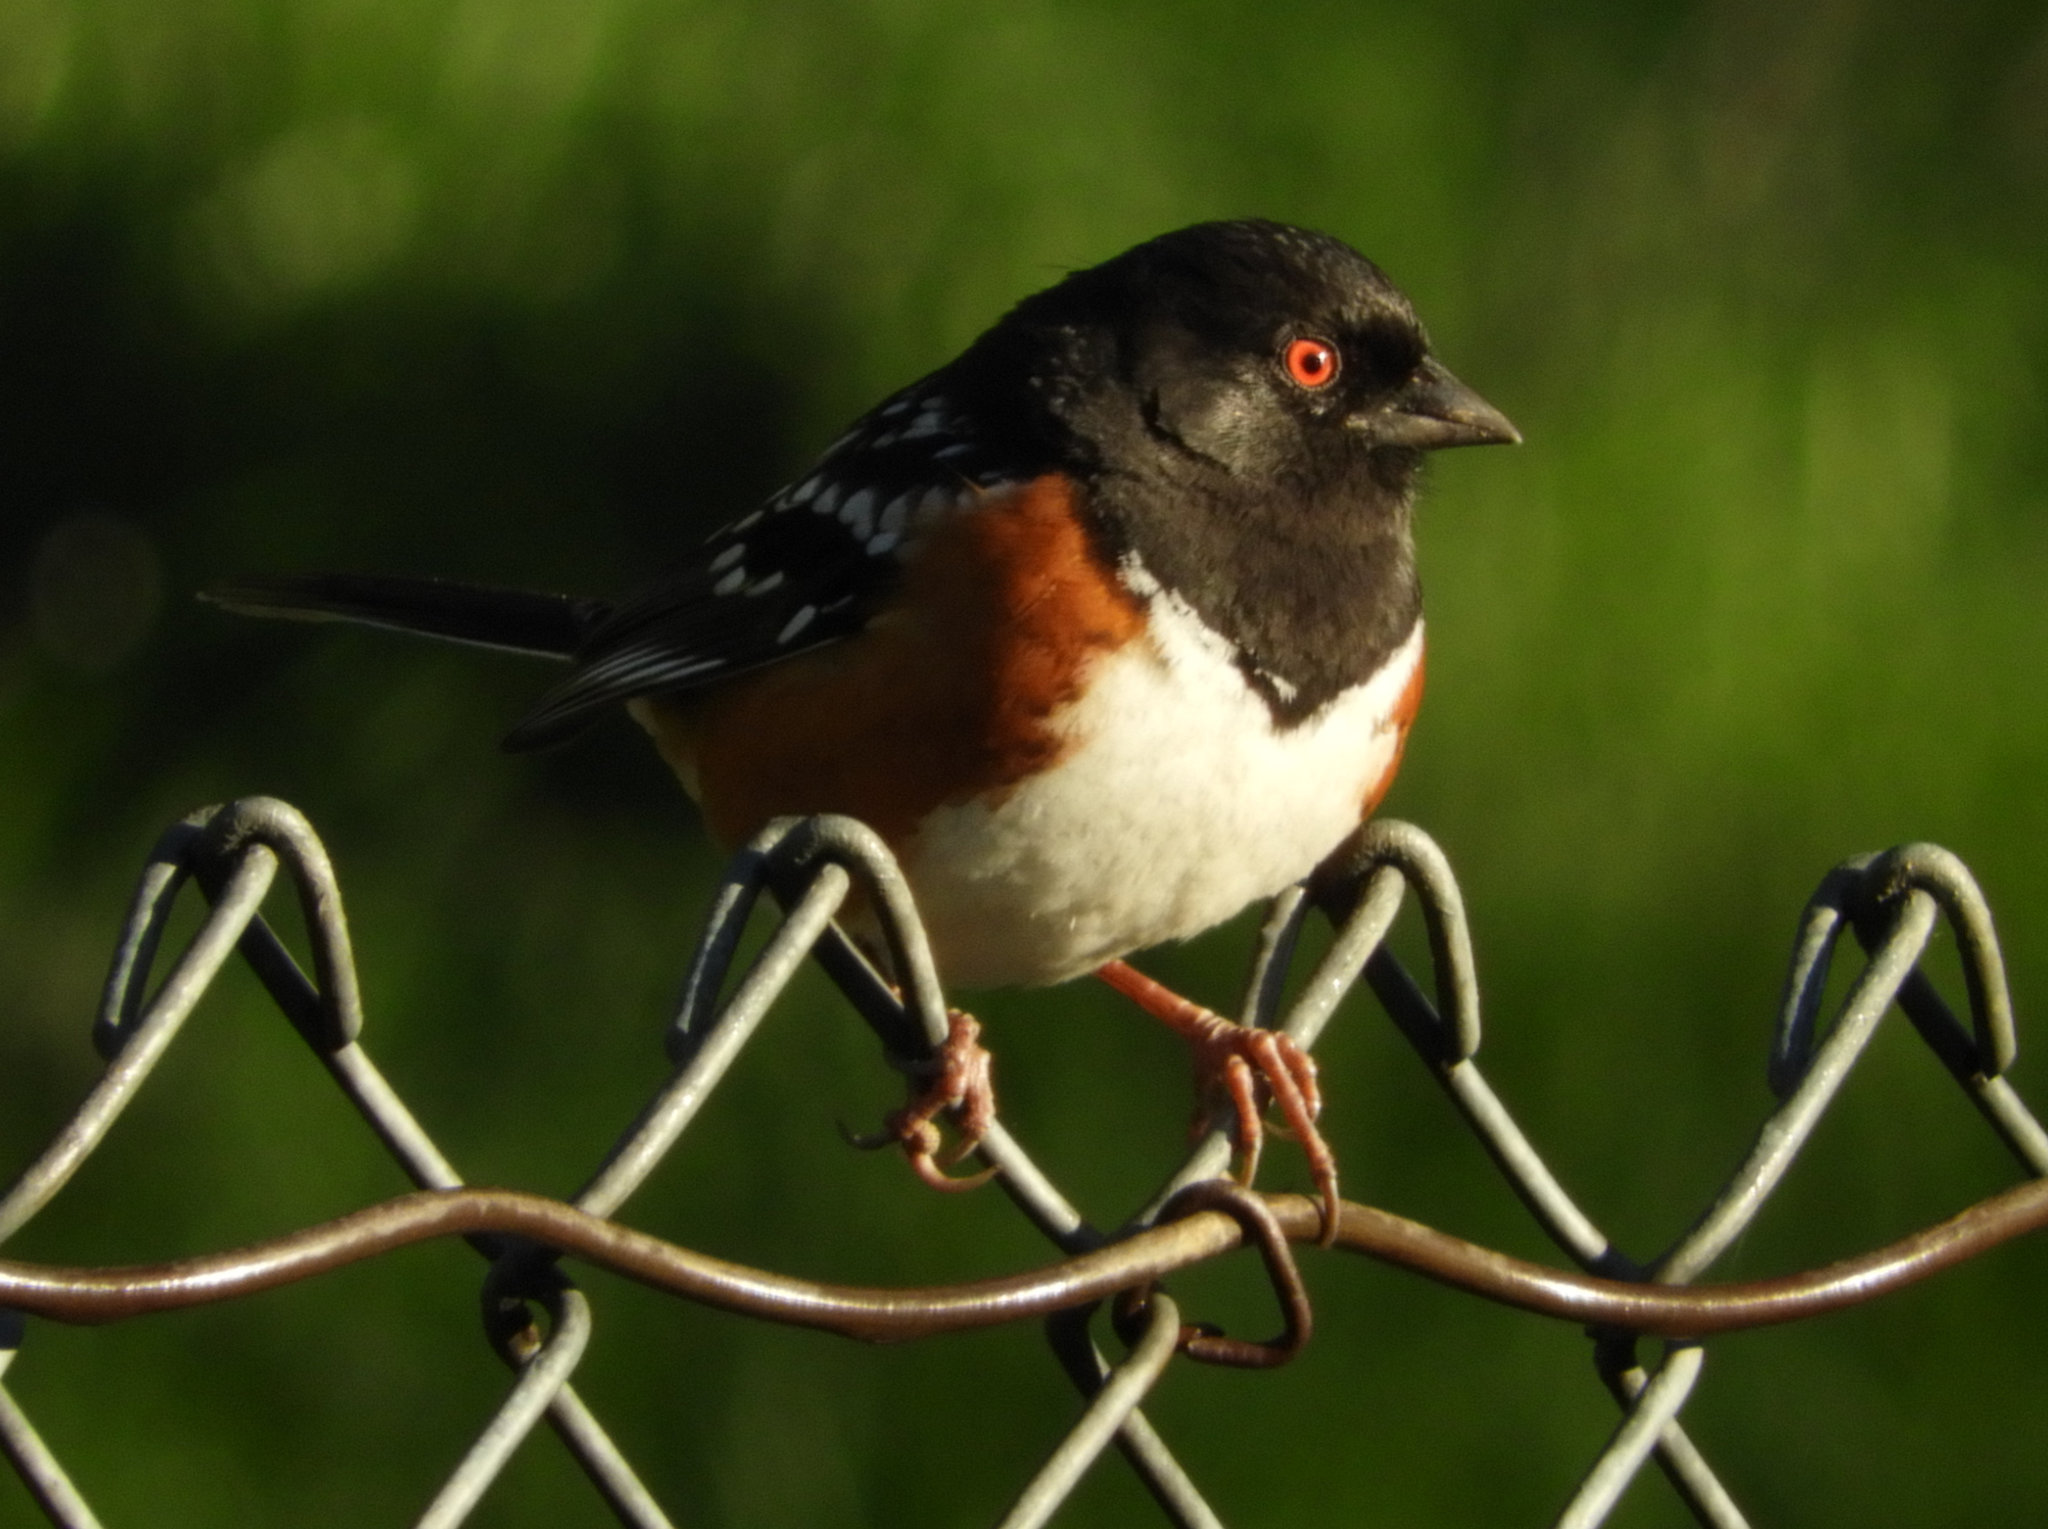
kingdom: Animalia
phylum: Chordata
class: Aves
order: Passeriformes
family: Passerellidae
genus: Pipilo
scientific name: Pipilo maculatus
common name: Spotted towhee
